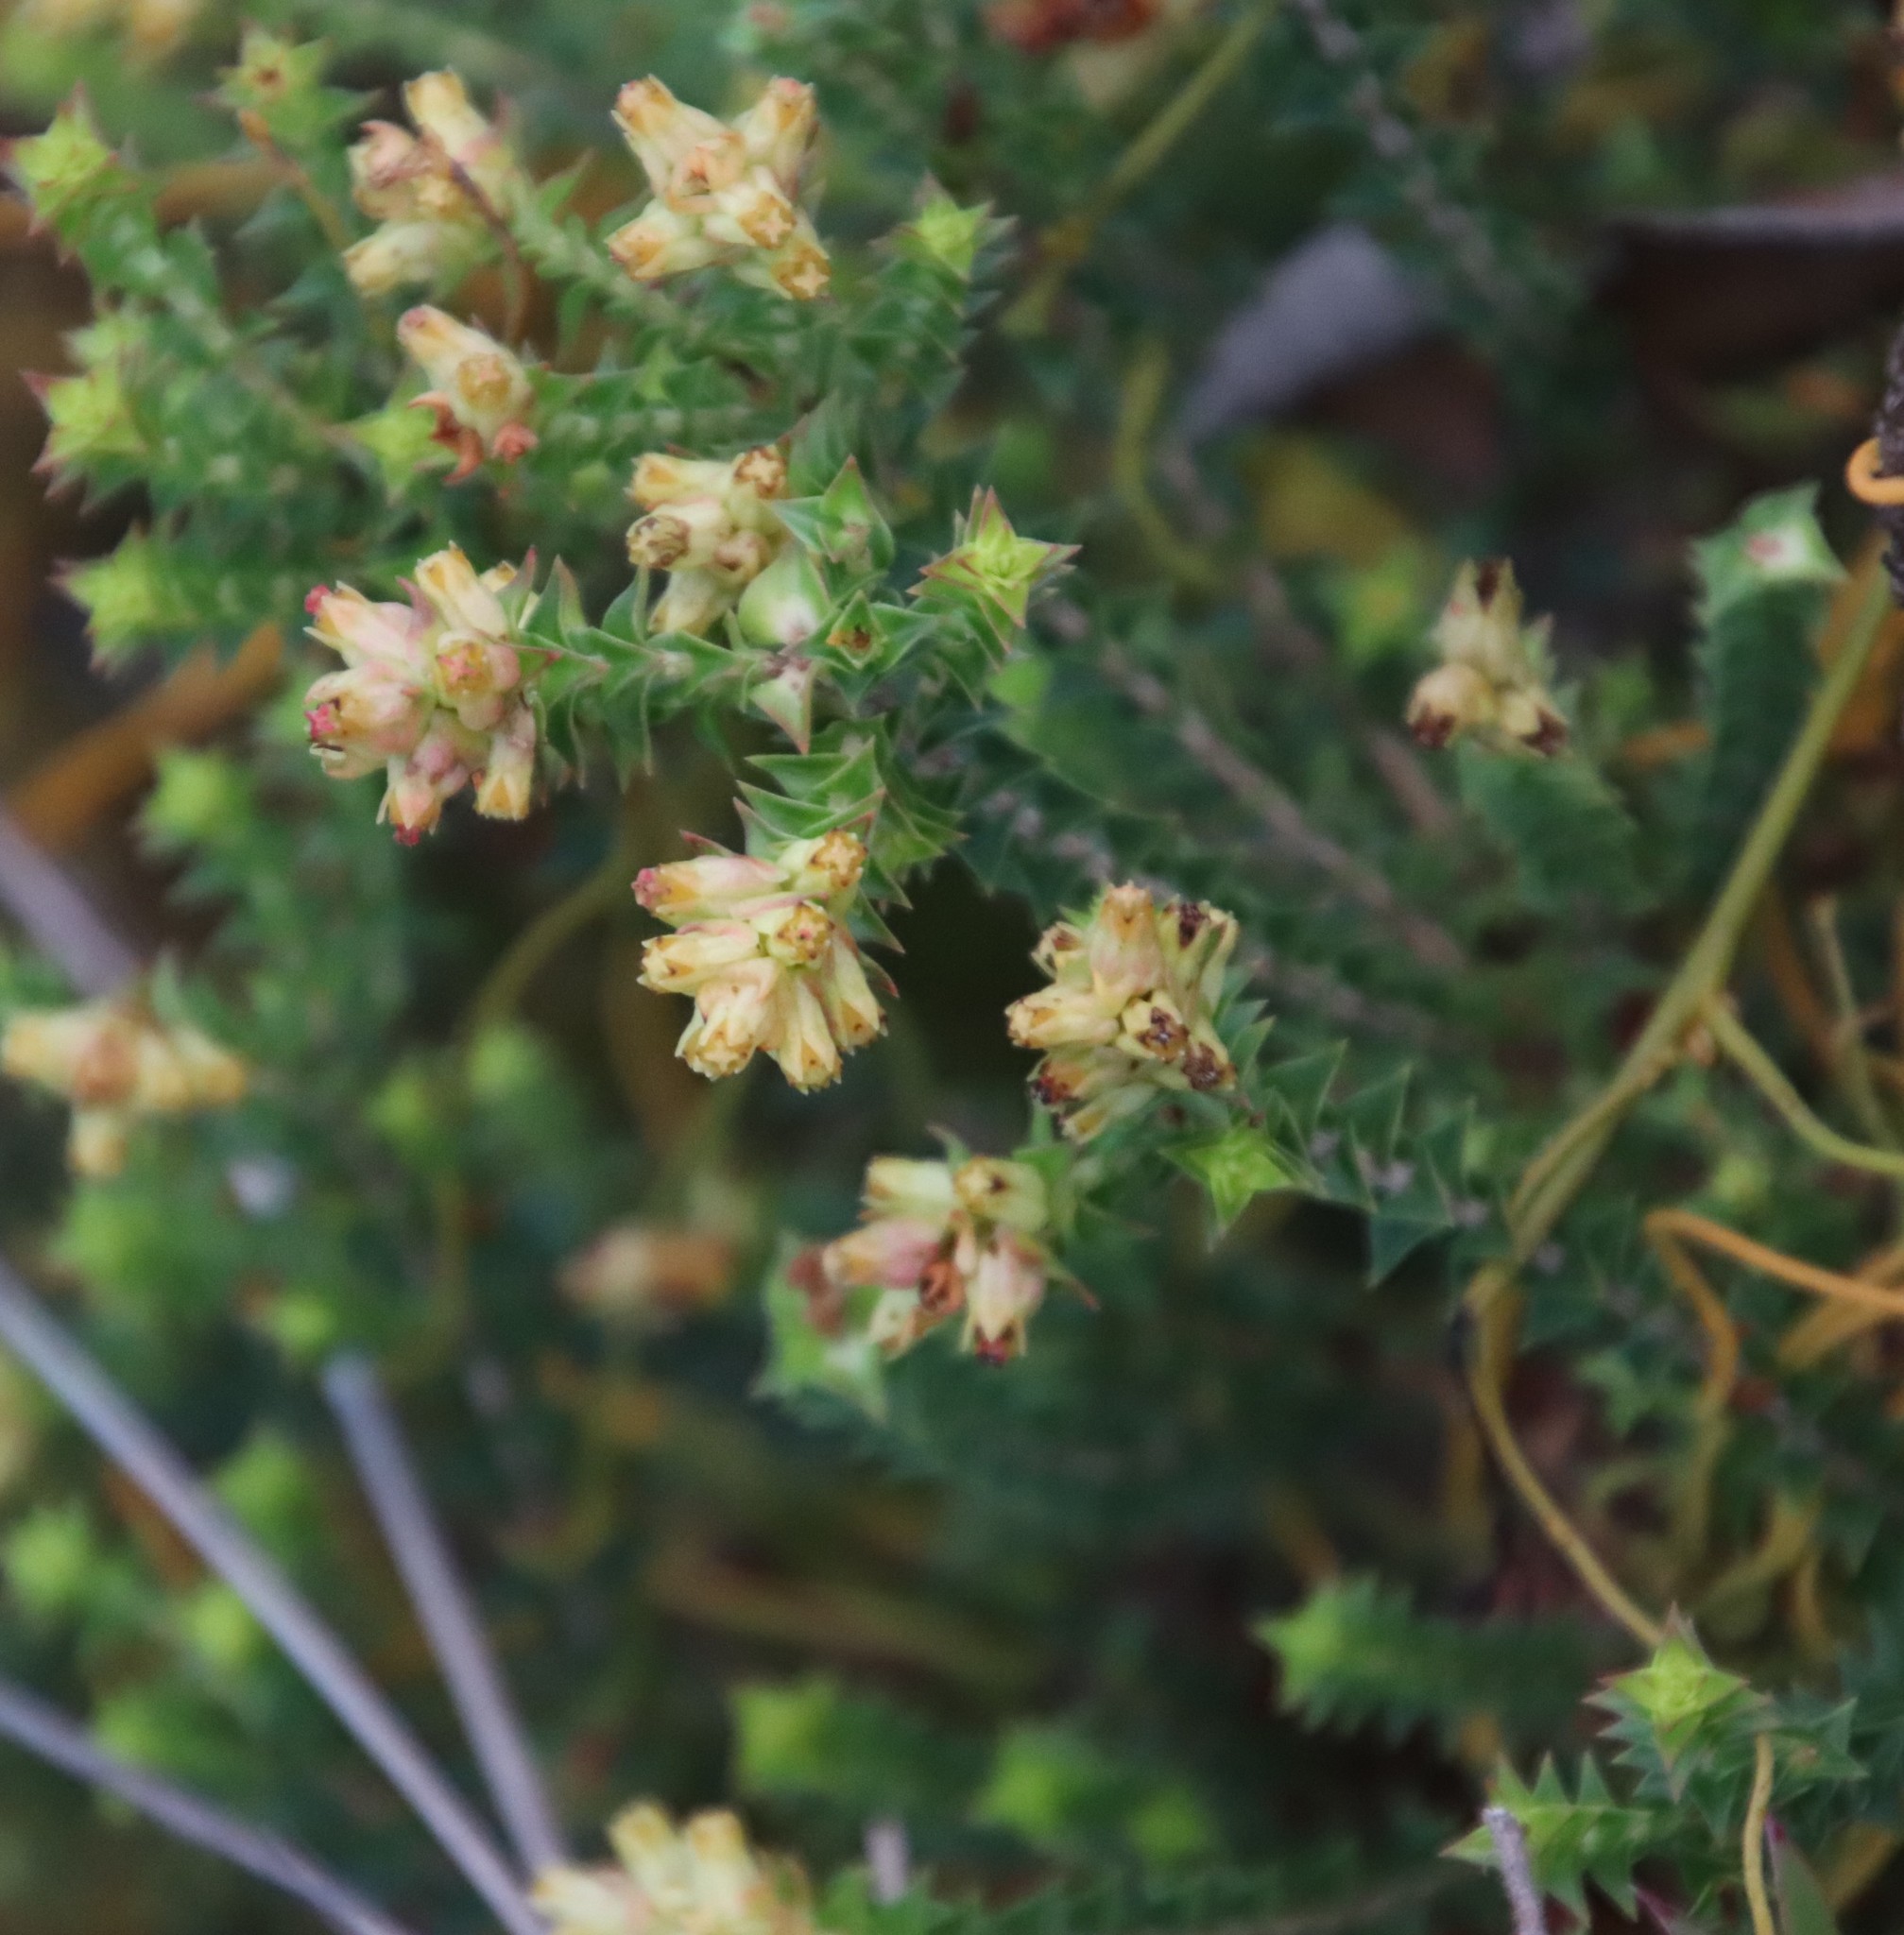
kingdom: Plantae
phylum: Tracheophyta
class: Magnoliopsida
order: Myrtales
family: Penaeaceae
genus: Penaea
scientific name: Penaea mucronata
